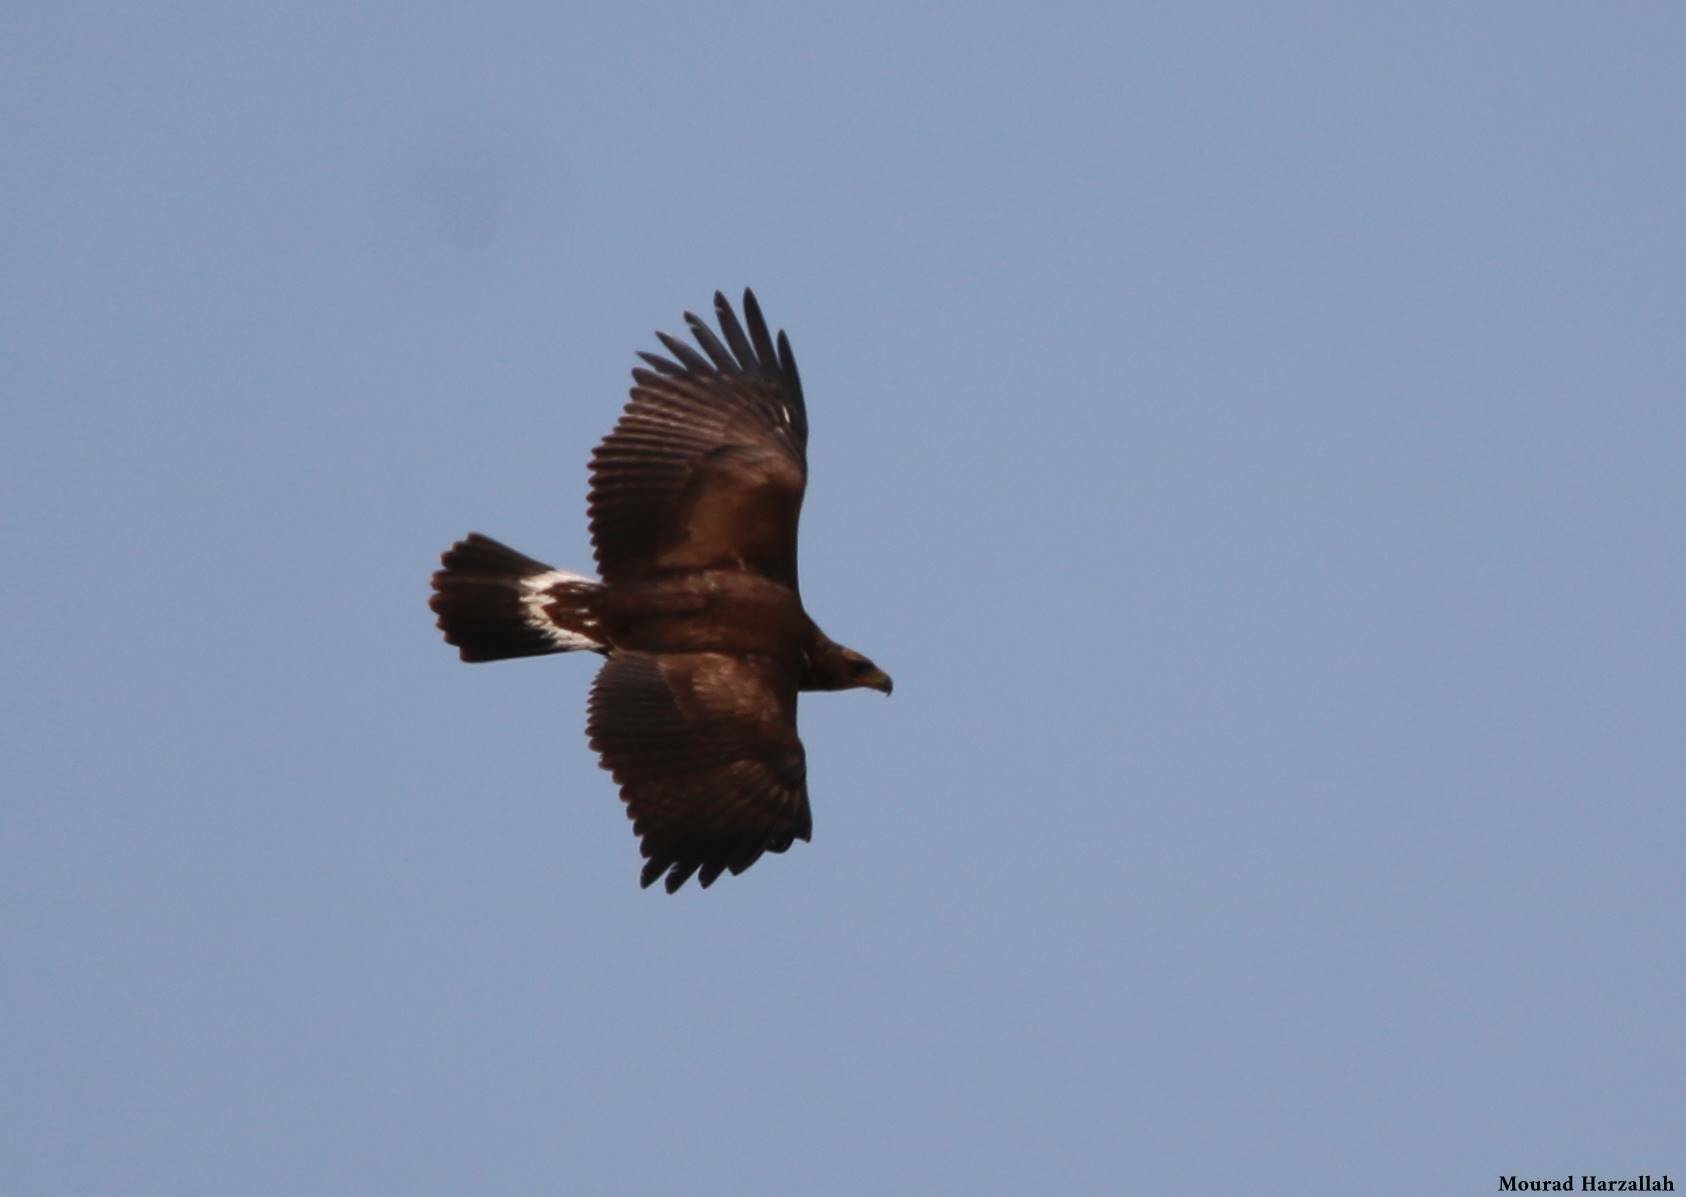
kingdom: Animalia
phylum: Chordata
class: Aves
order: Accipitriformes
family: Accipitridae
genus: Aquila
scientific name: Aquila chrysaetos
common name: Golden eagle
